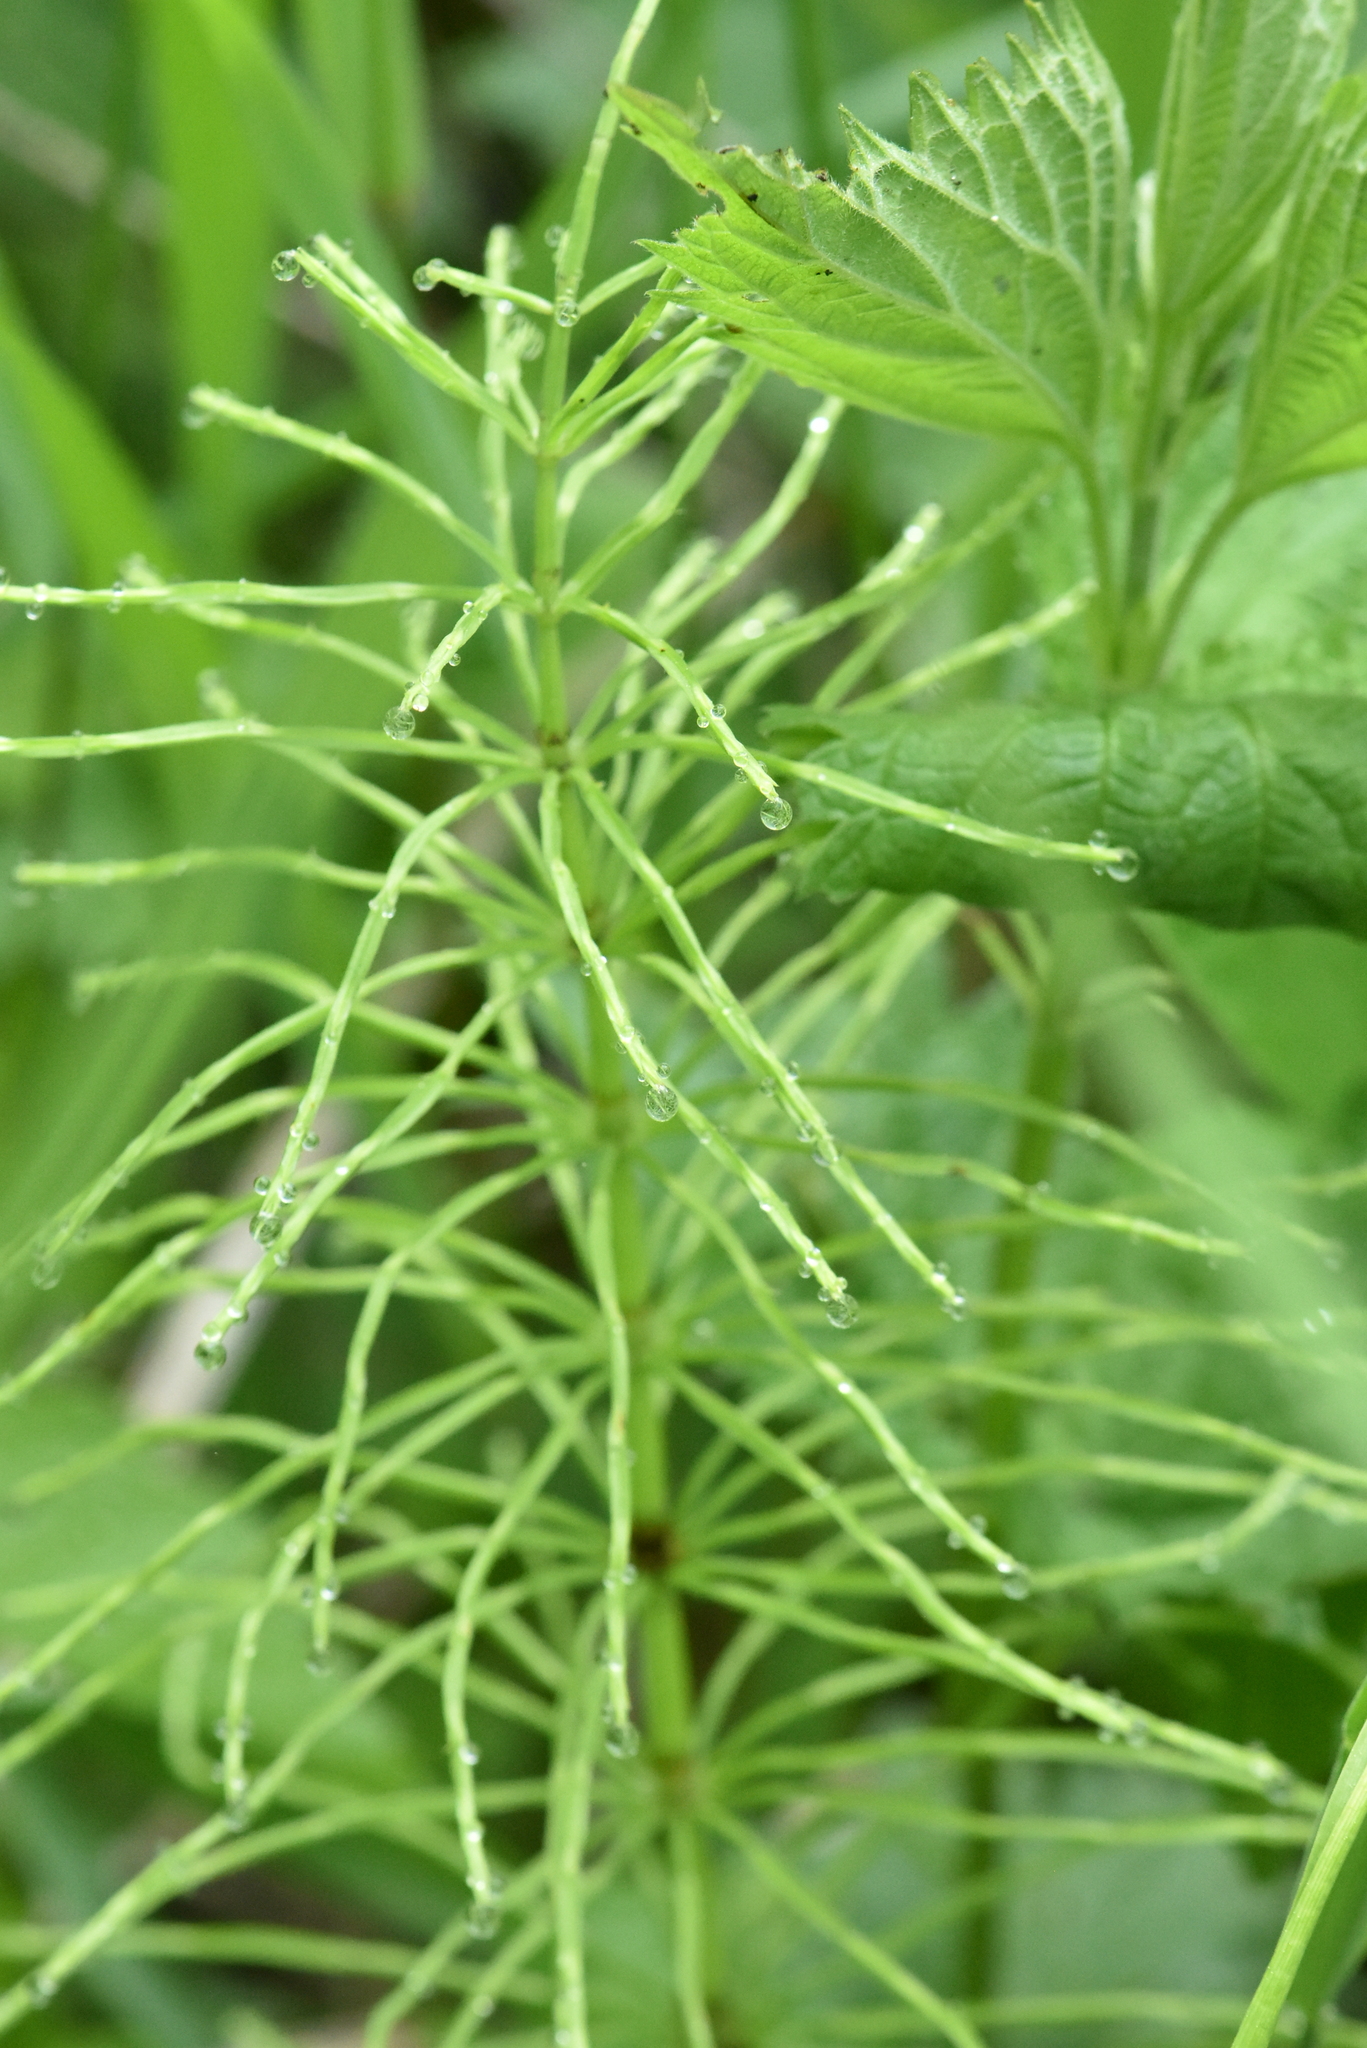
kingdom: Plantae
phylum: Tracheophyta
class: Polypodiopsida
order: Equisetales
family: Equisetaceae
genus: Equisetum
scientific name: Equisetum pratense
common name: Meadow horsetail
